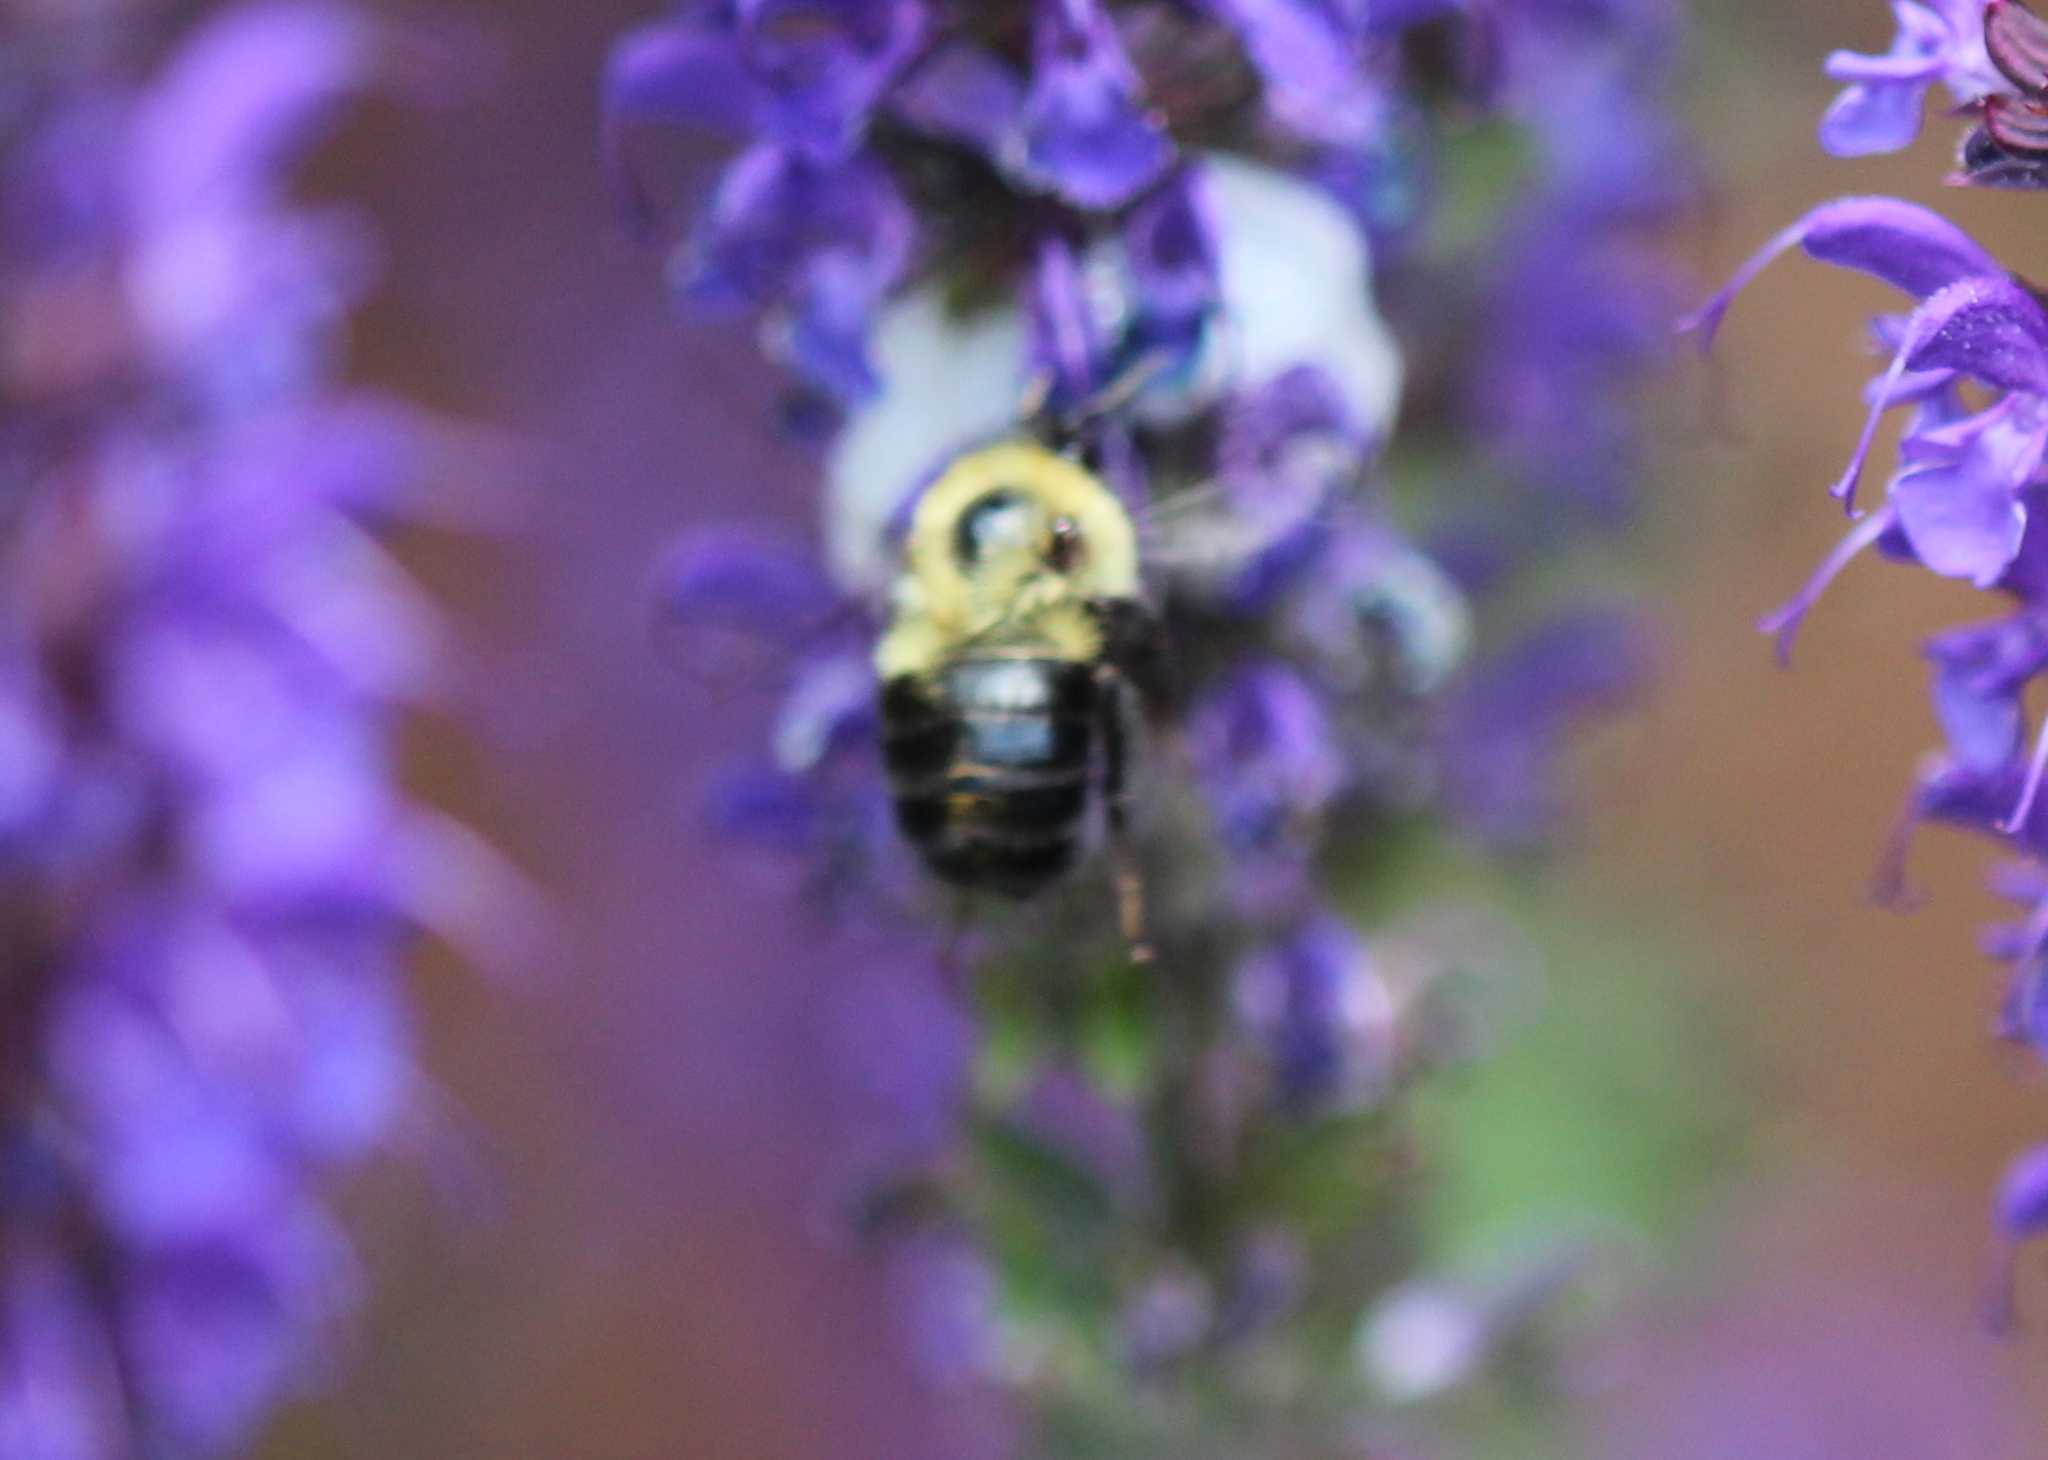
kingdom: Animalia
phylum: Arthropoda
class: Insecta
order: Hymenoptera
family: Apidae
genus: Bombus
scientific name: Bombus bimaculatus
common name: Two-spotted bumble bee
